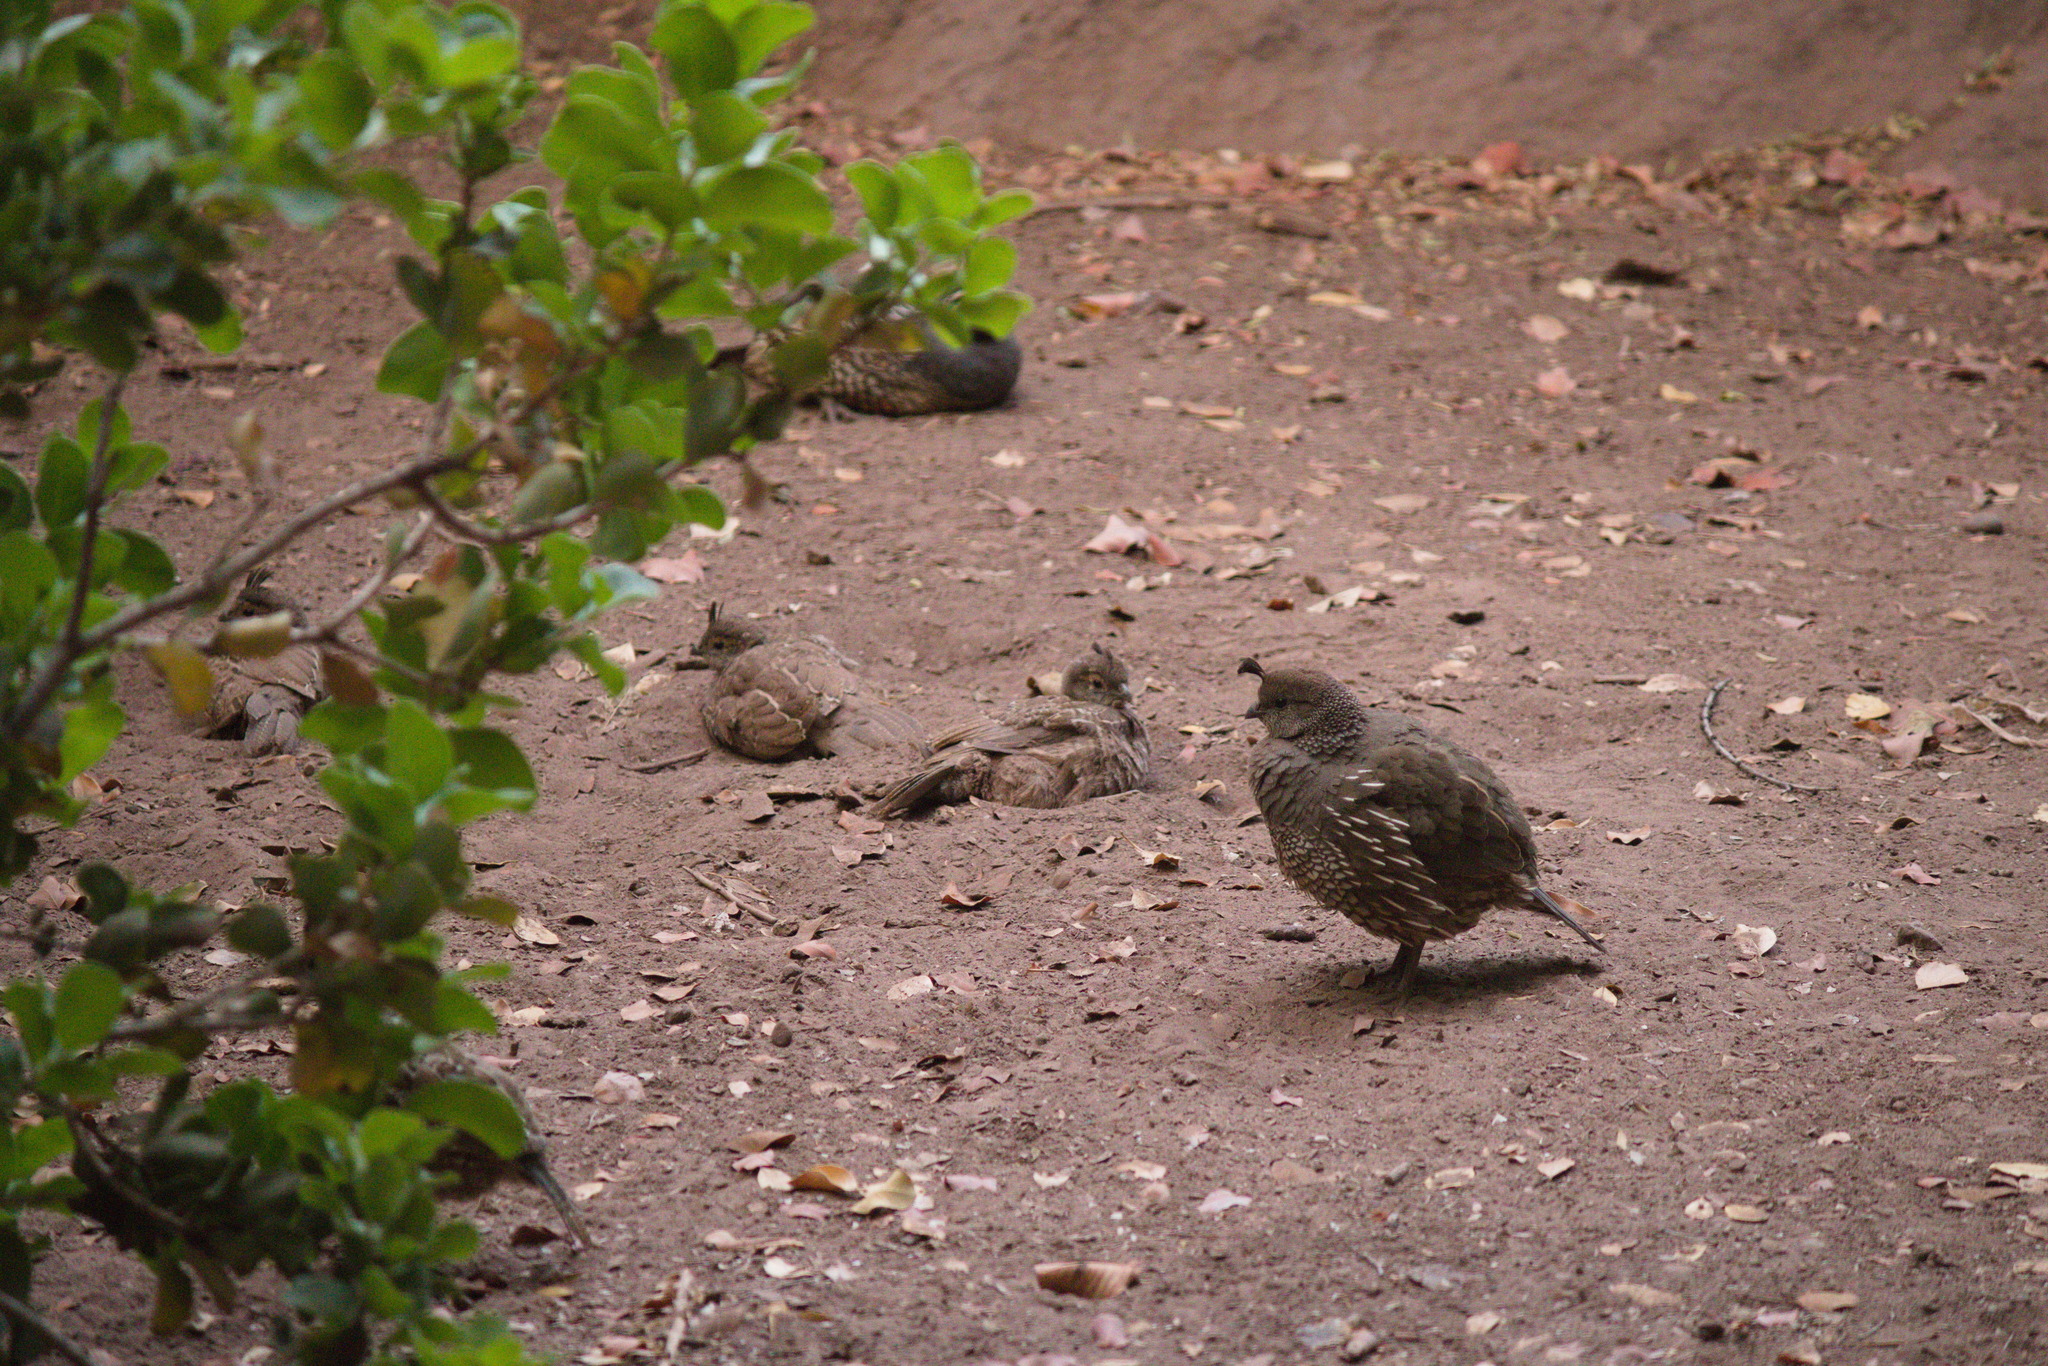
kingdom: Animalia
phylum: Chordata
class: Aves
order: Galliformes
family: Odontophoridae
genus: Callipepla
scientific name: Callipepla californica
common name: California quail
